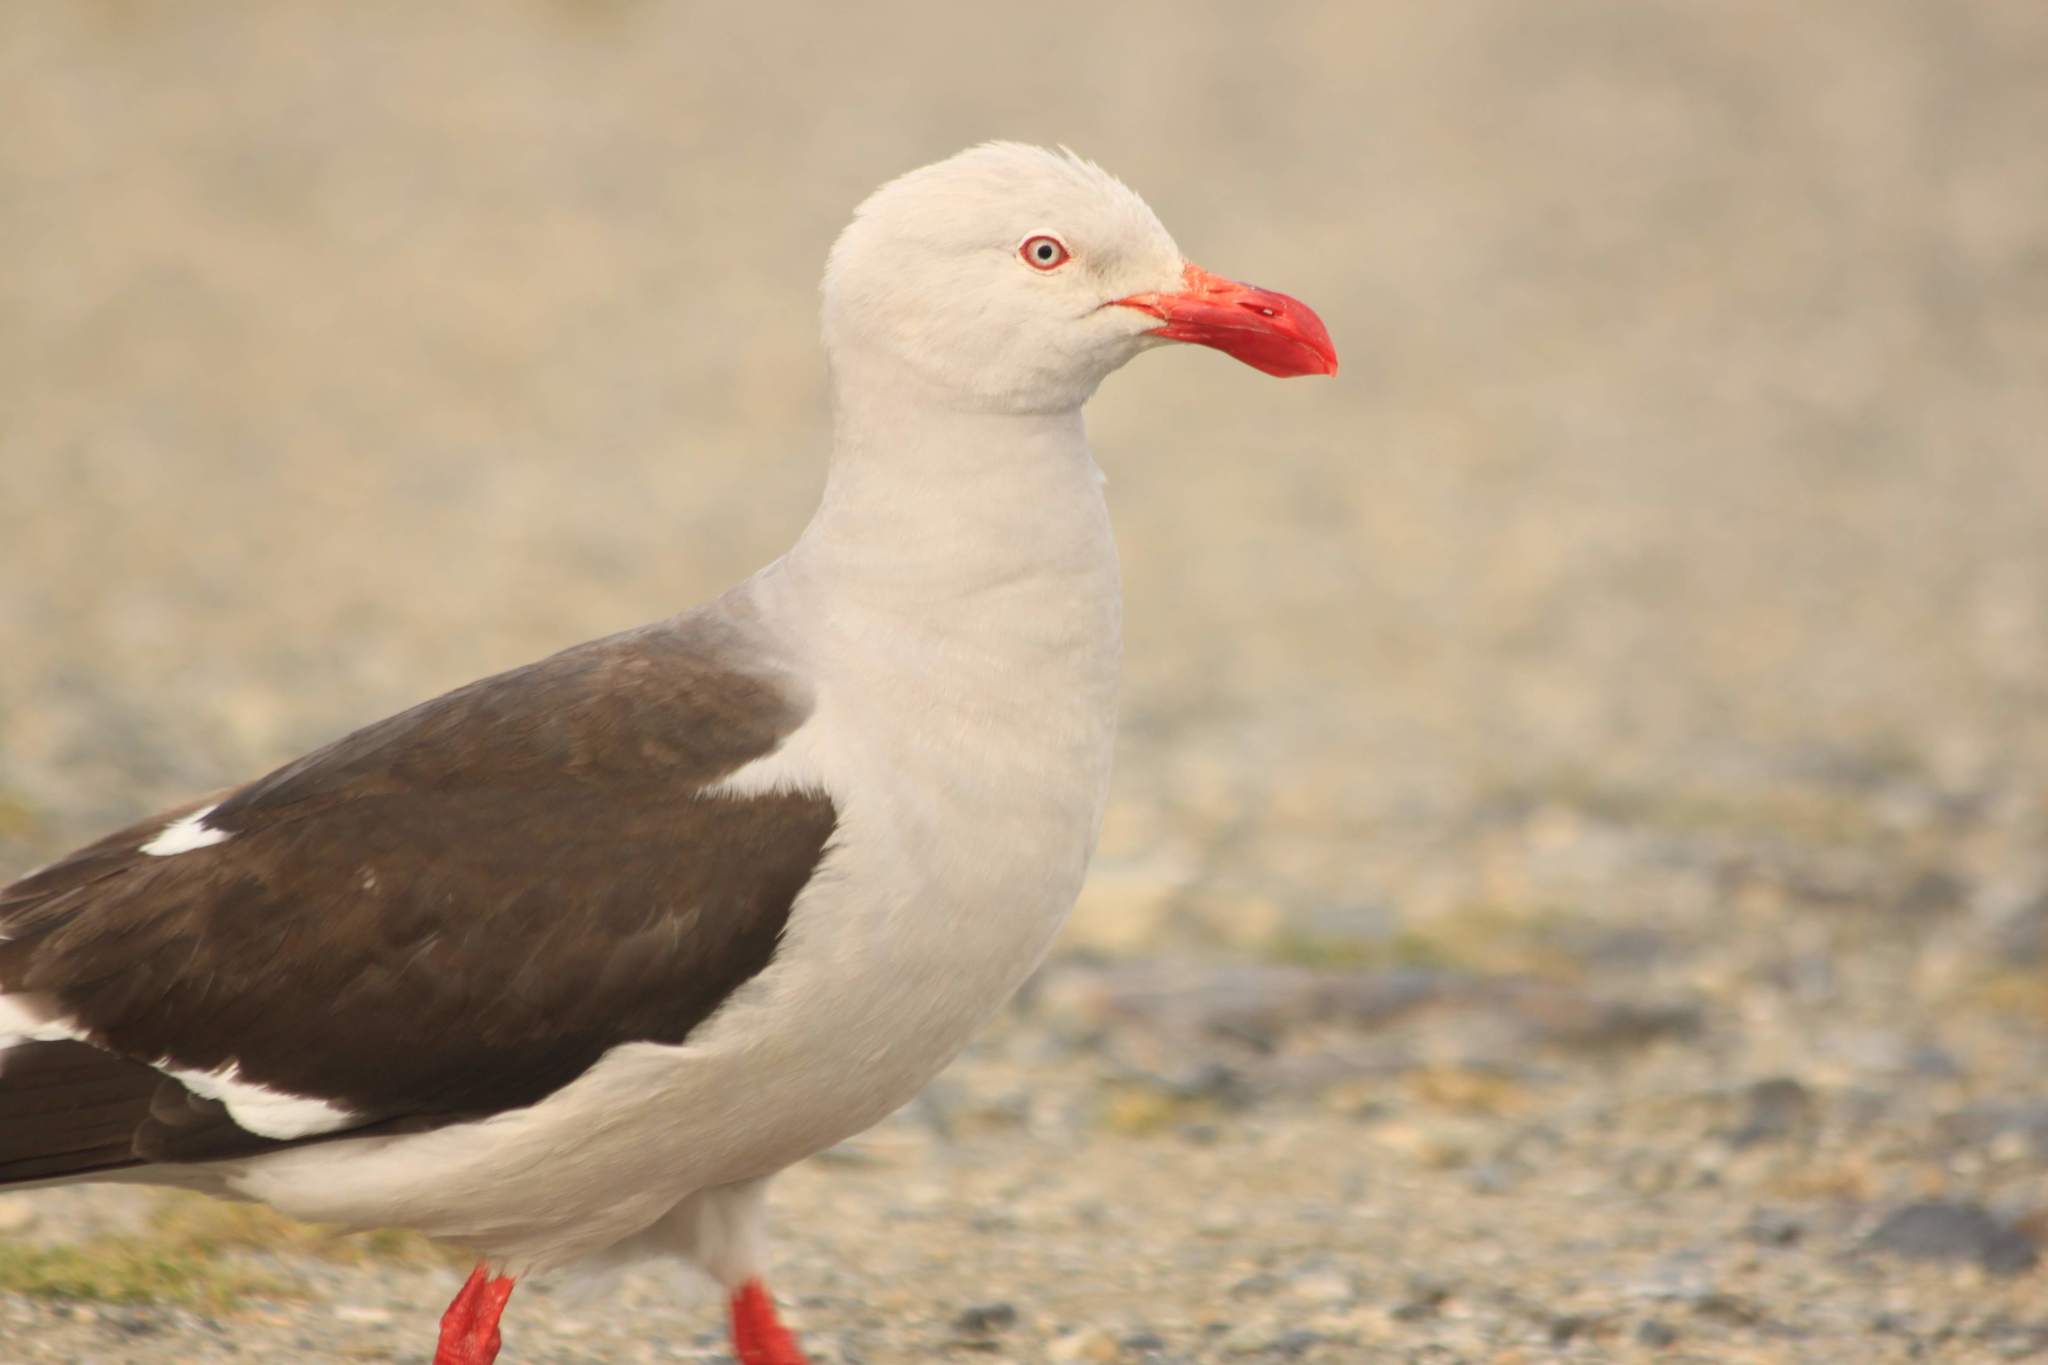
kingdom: Animalia
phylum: Chordata
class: Aves
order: Charadriiformes
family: Laridae
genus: Leucophaeus
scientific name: Leucophaeus scoresbii
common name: Dolphin gull
